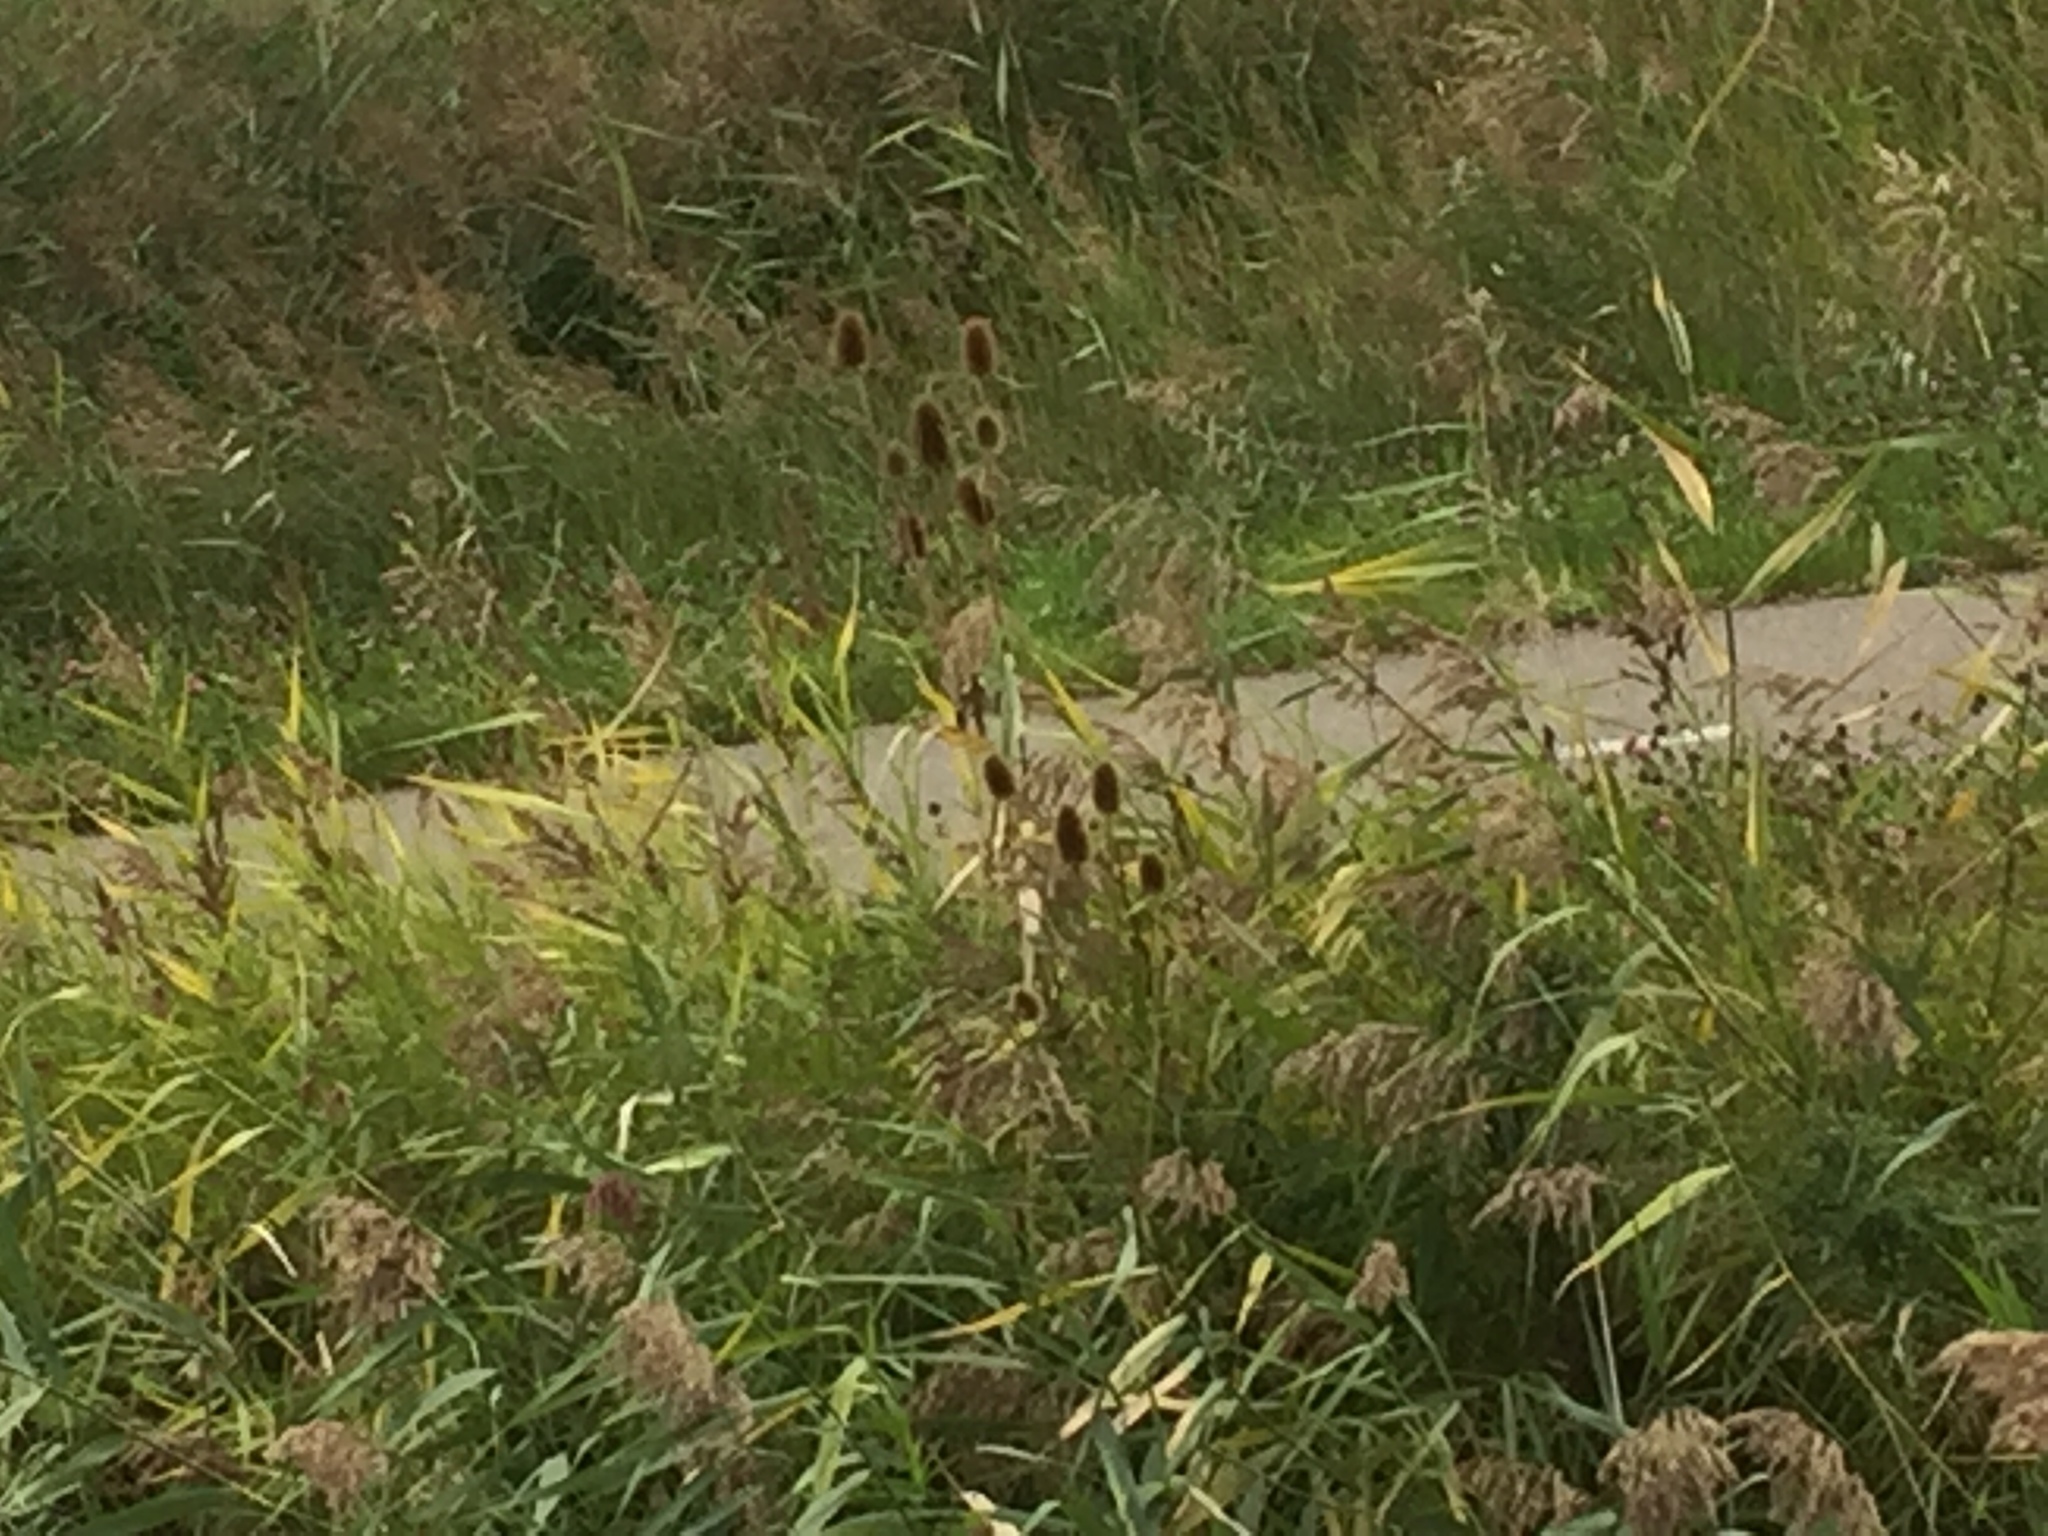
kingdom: Plantae
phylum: Tracheophyta
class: Magnoliopsida
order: Dipsacales
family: Caprifoliaceae
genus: Dipsacus
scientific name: Dipsacus fullonum
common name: Teasel
